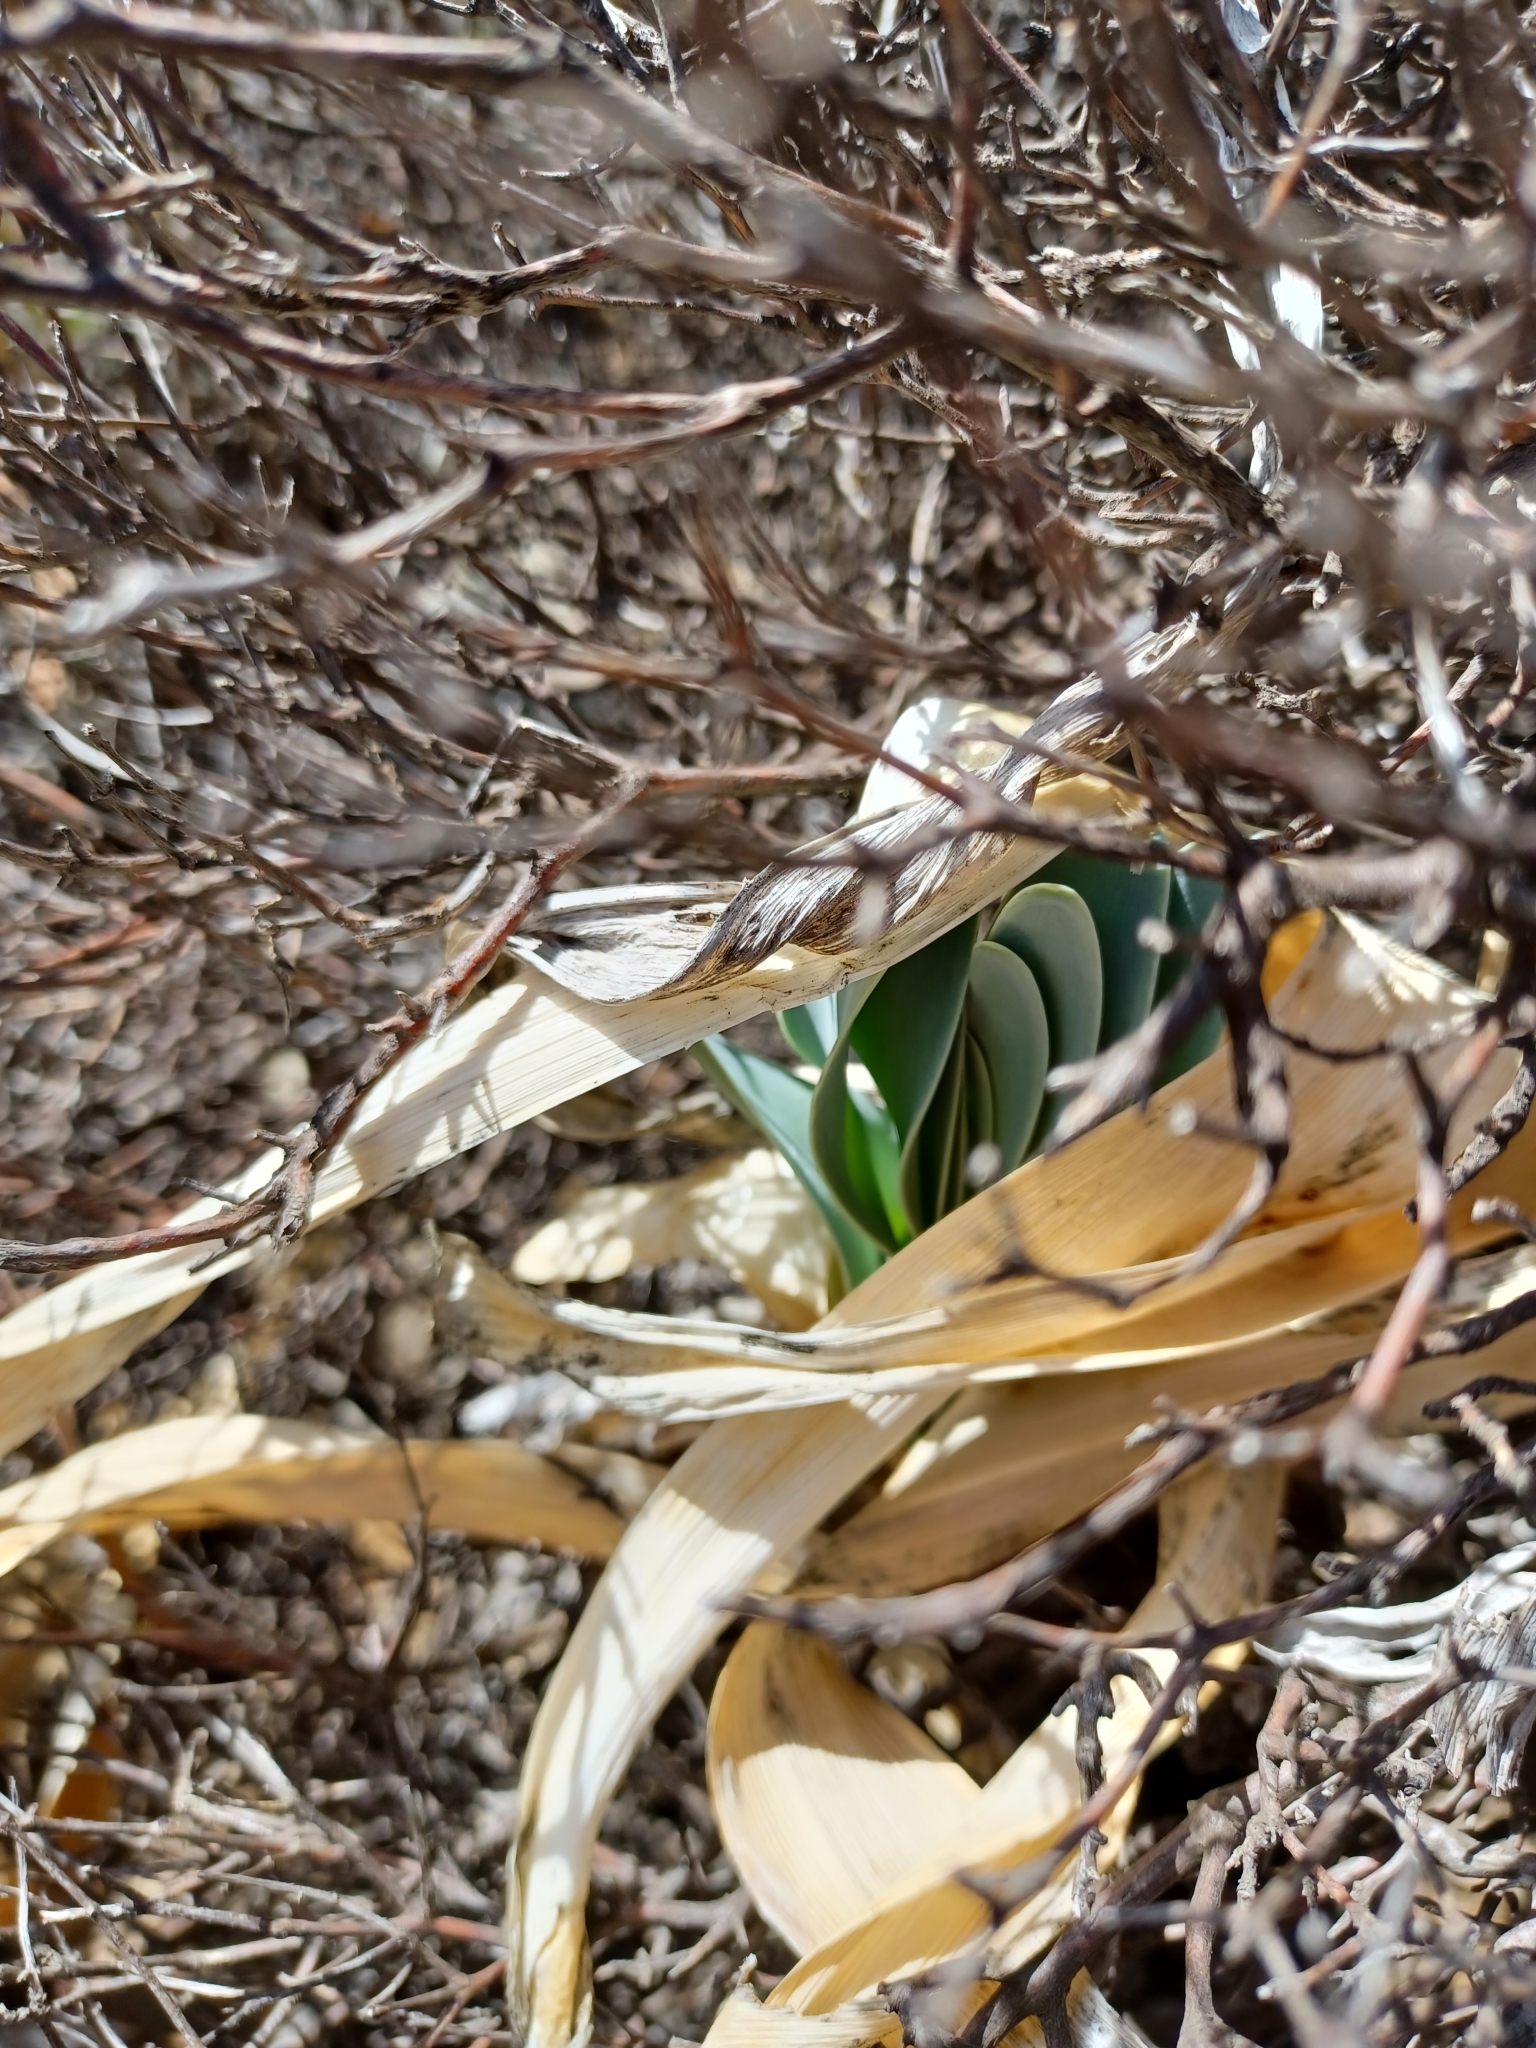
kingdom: Plantae
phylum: Tracheophyta
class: Liliopsida
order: Asparagales
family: Asparagaceae
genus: Drimia
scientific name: Drimia capensis
